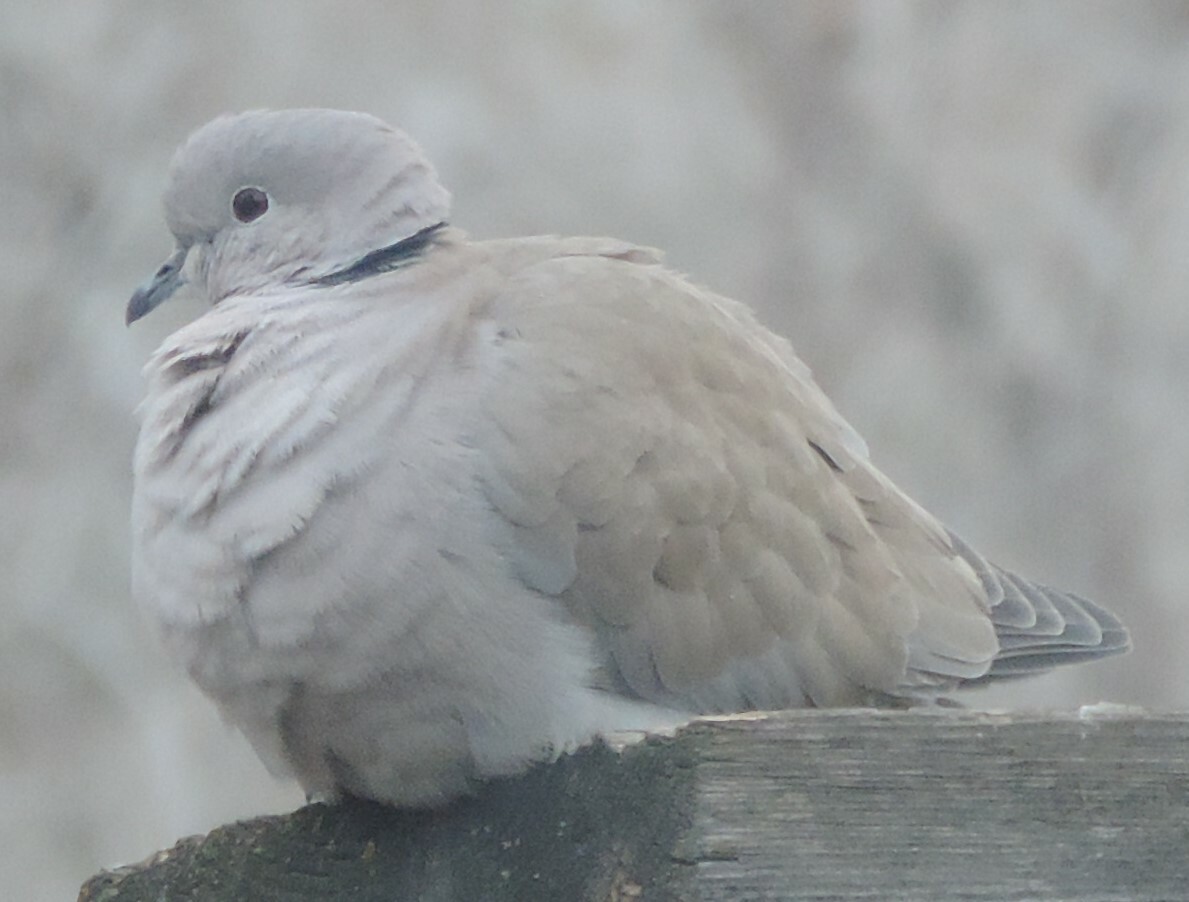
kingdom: Animalia
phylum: Chordata
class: Aves
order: Columbiformes
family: Columbidae
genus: Streptopelia
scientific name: Streptopelia decaocto
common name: Eurasian collared dove
